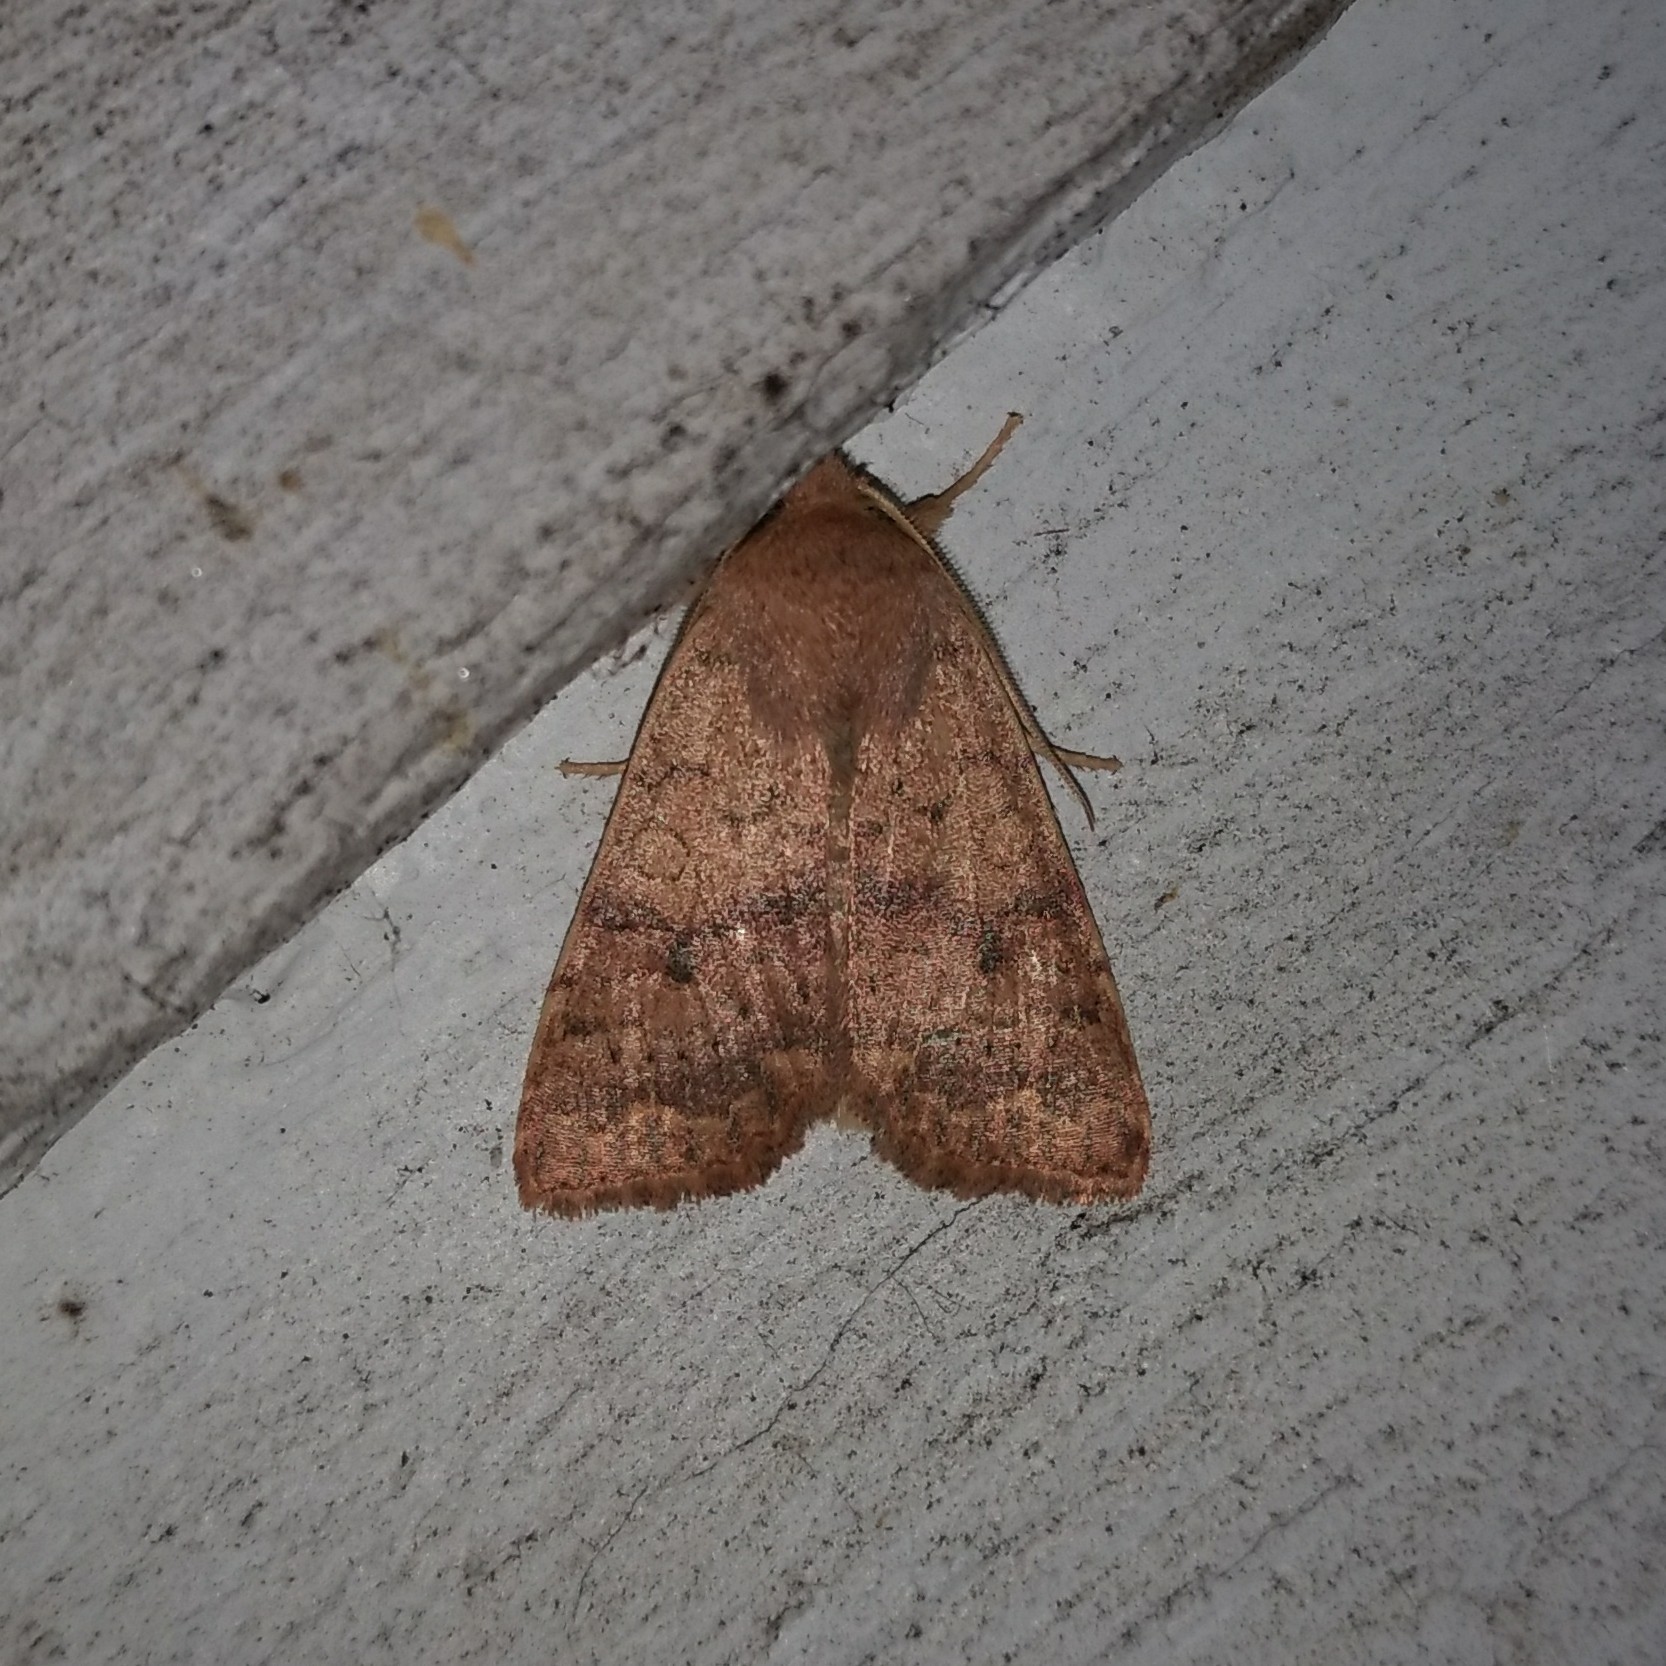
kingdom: Animalia
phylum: Arthropoda
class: Insecta
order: Lepidoptera
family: Noctuidae
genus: Agrochola
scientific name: Agrochola bicolorago
